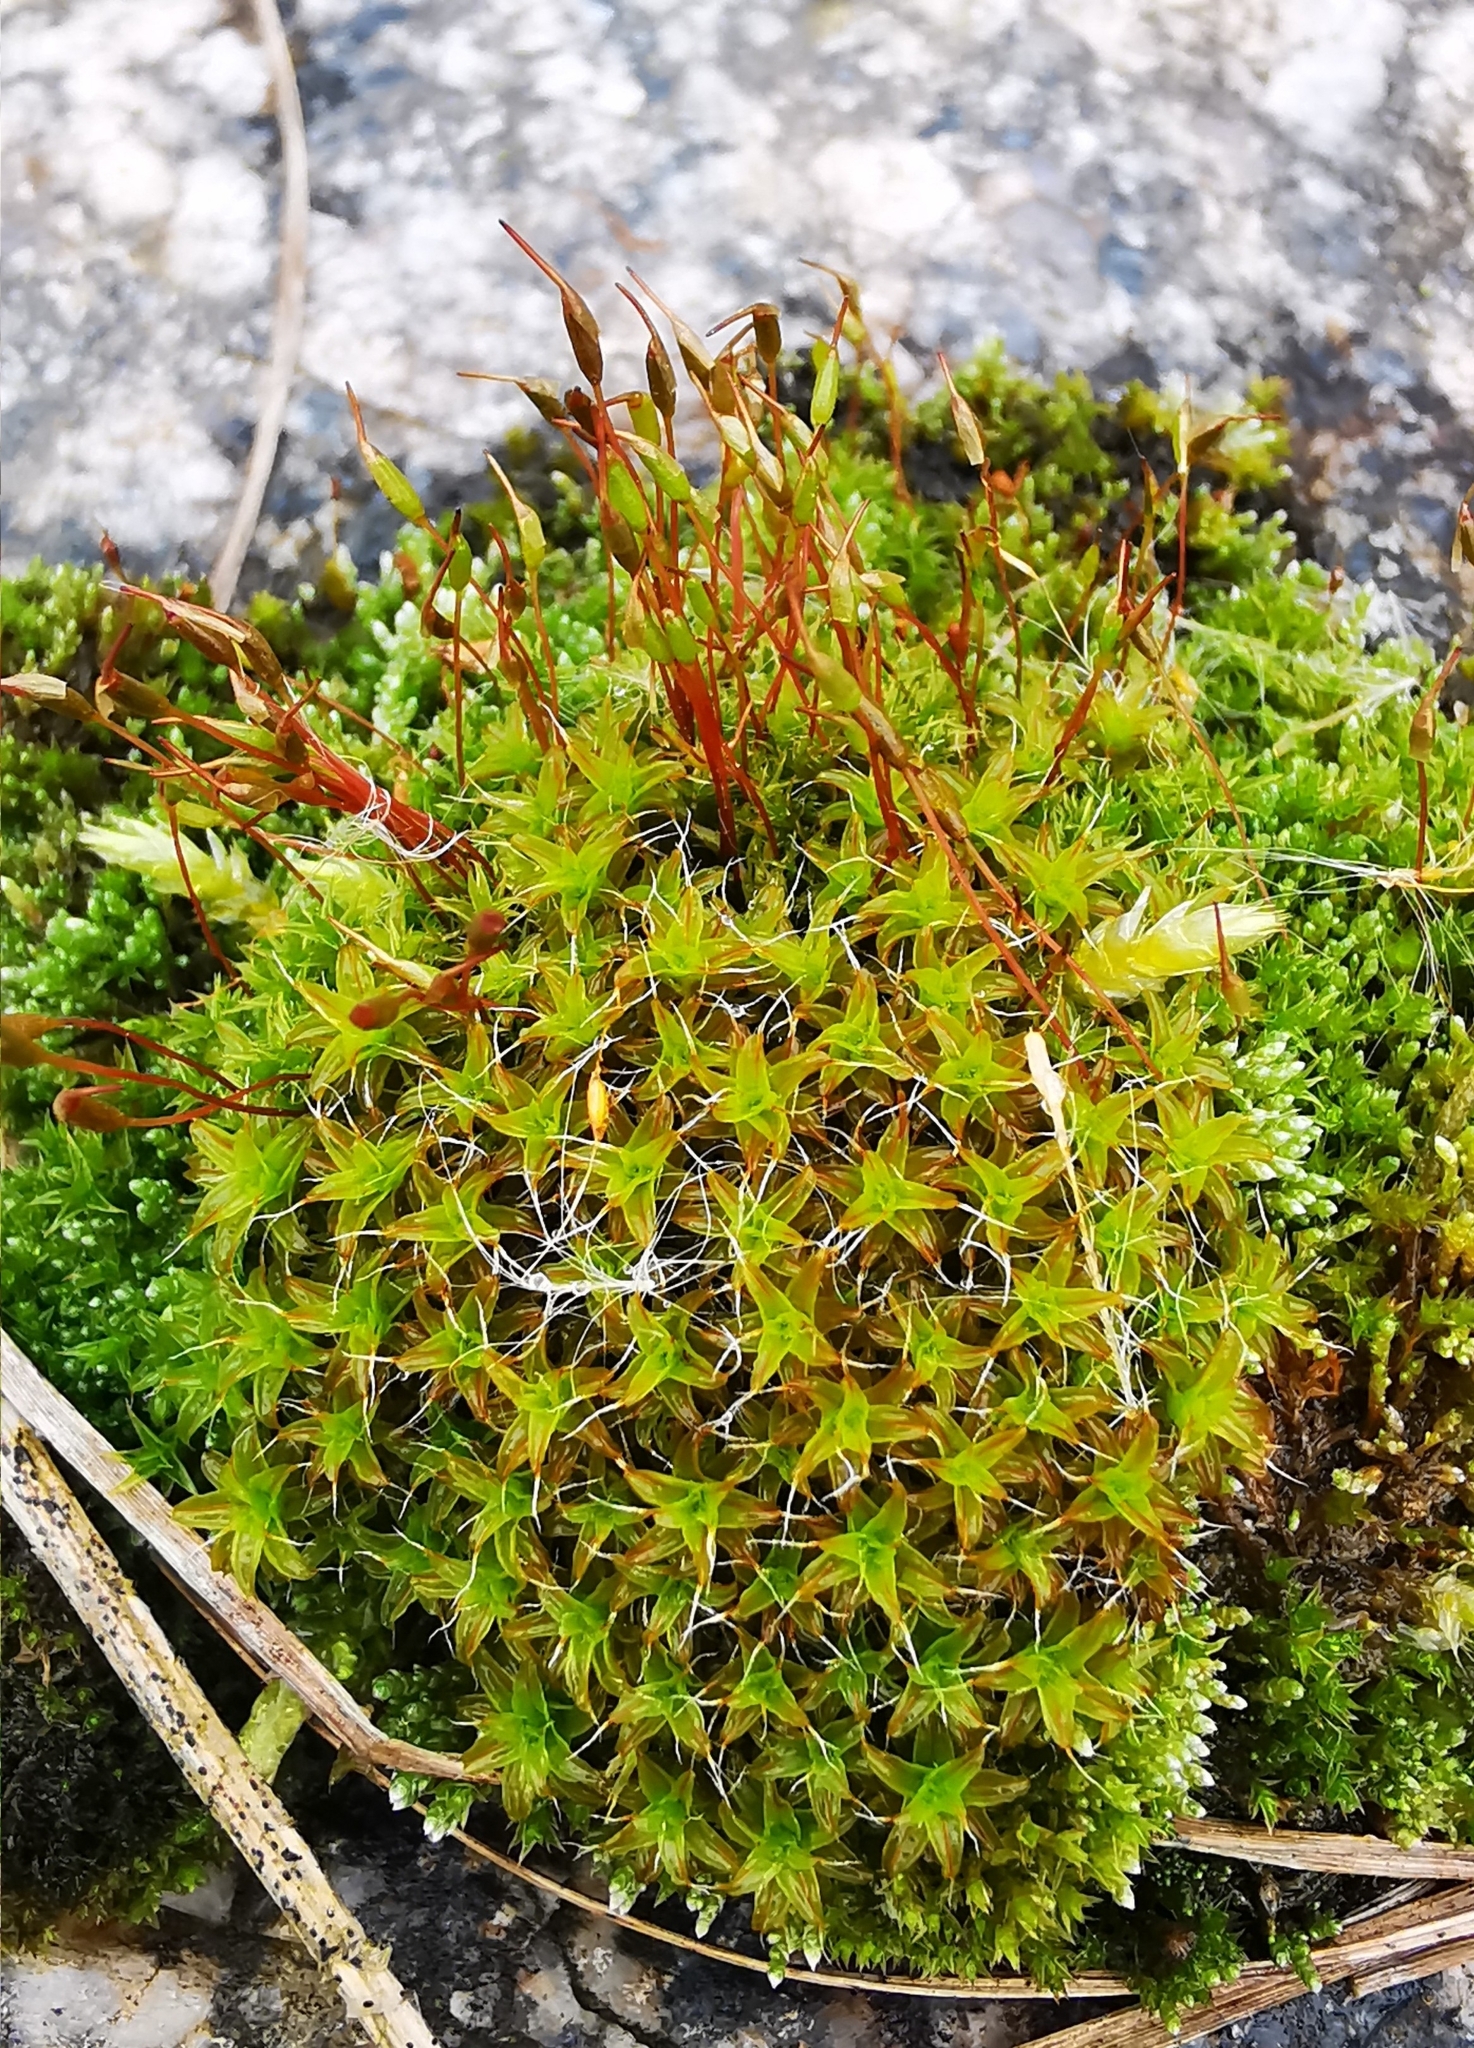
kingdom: Plantae
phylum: Bryophyta
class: Bryopsida
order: Pottiales
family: Pottiaceae
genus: Syntrichia
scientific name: Syntrichia ruralis
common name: Sidewalk screw moss
